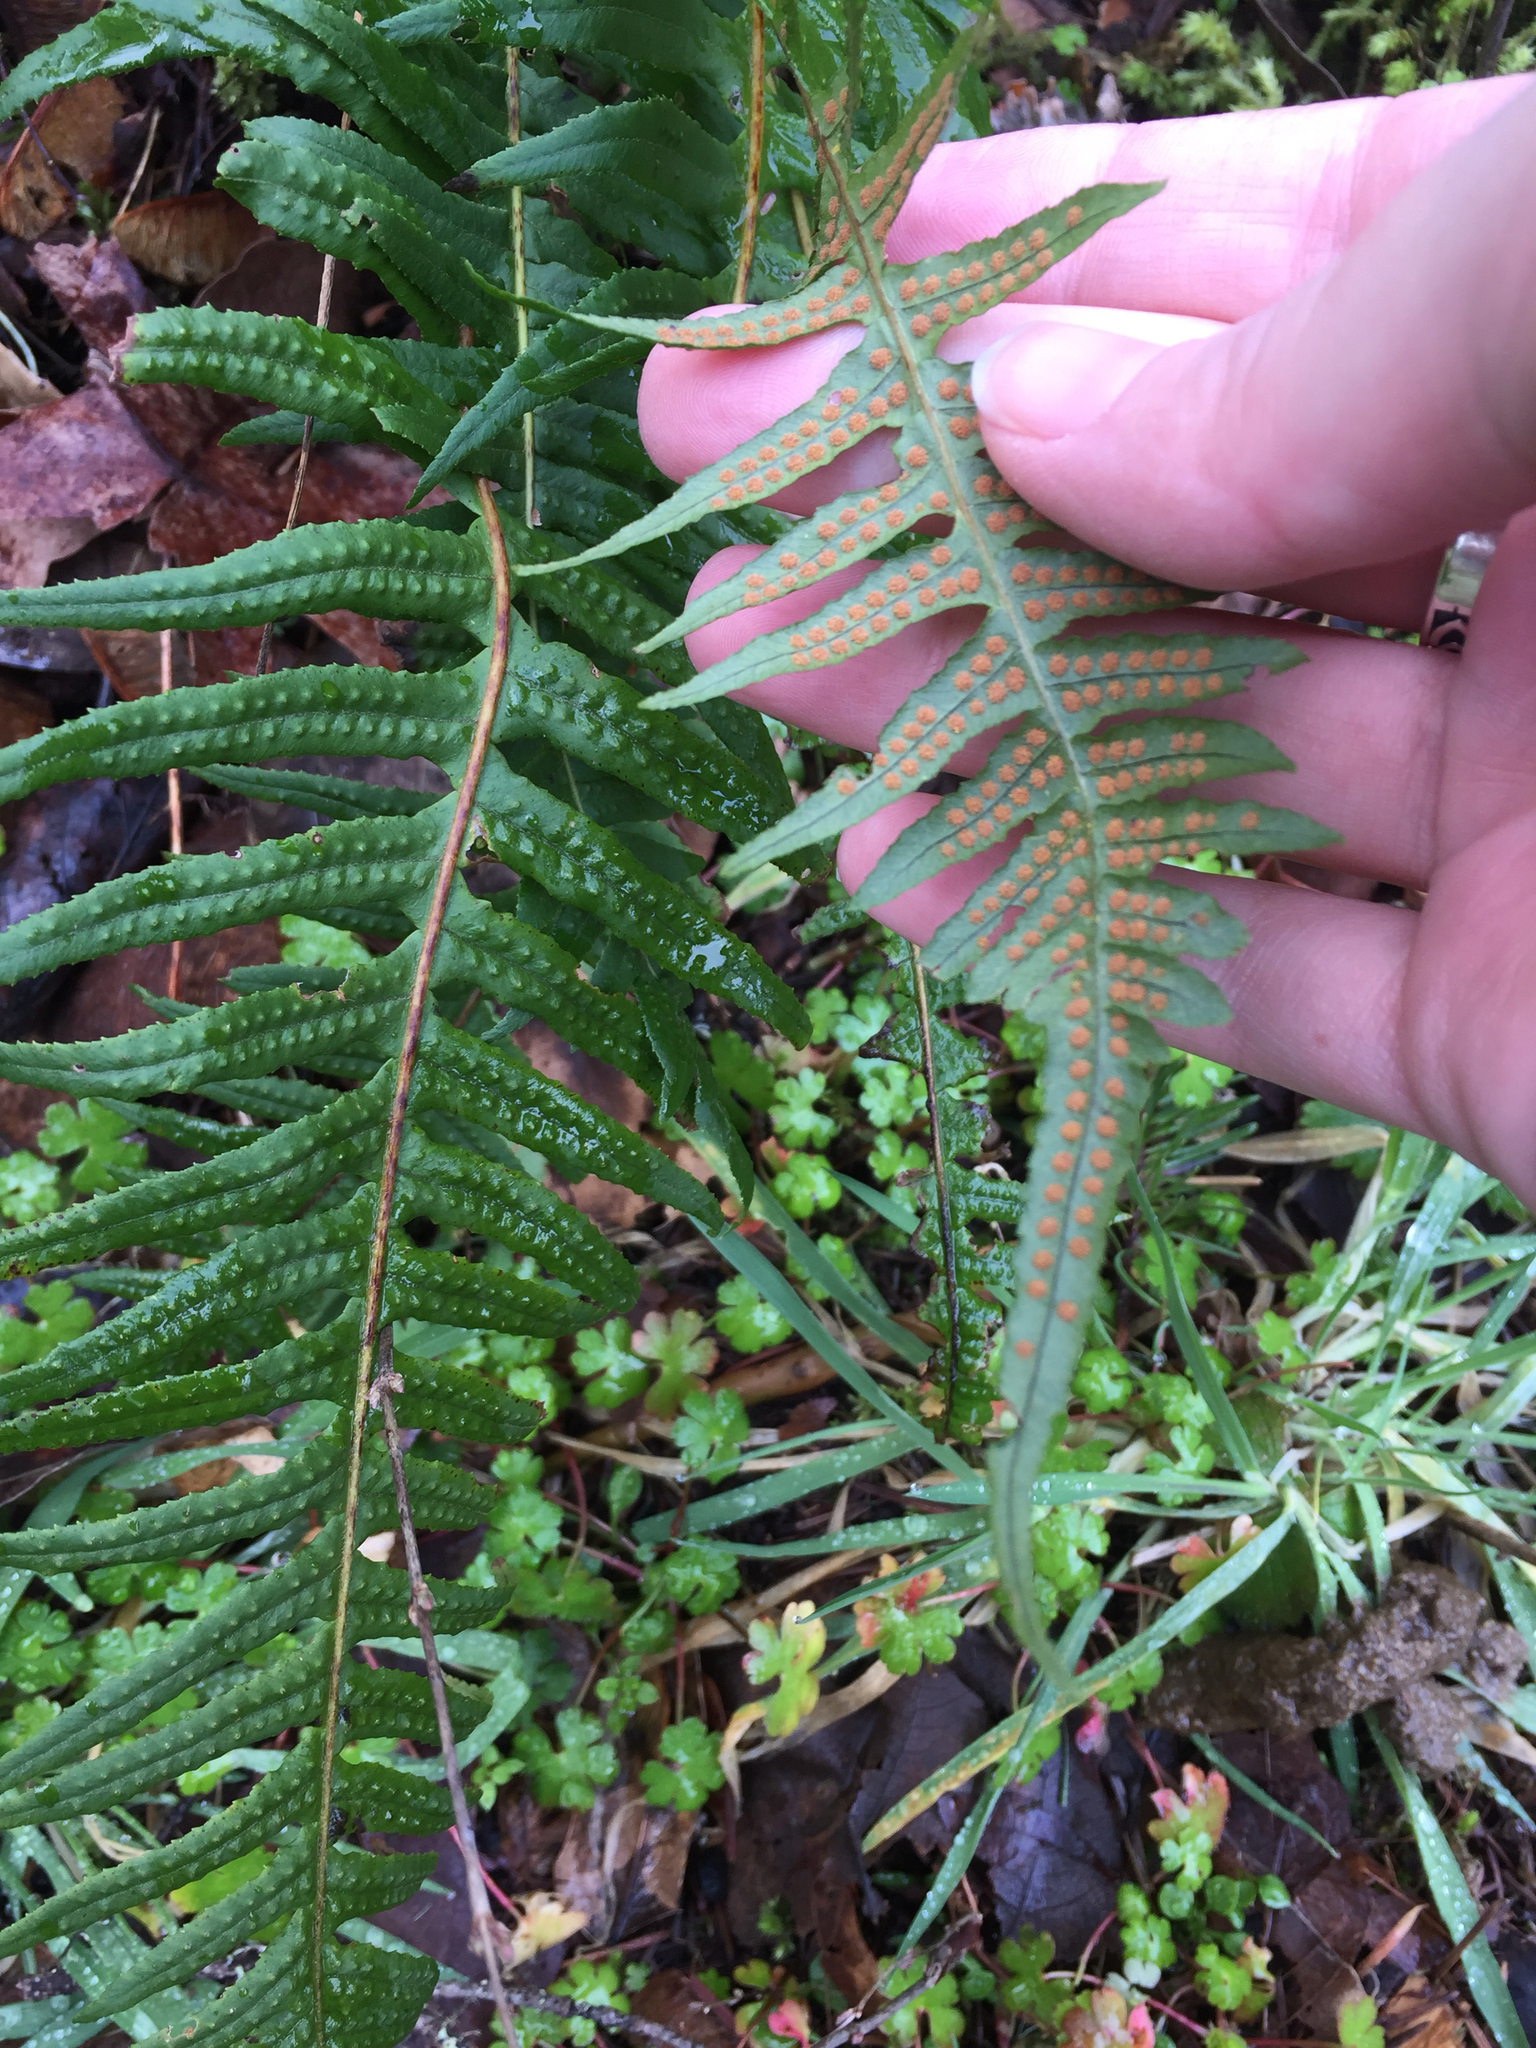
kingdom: Plantae
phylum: Tracheophyta
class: Polypodiopsida
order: Polypodiales
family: Polypodiaceae
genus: Polypodium
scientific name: Polypodium glycyrrhiza
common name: Licorice fern
